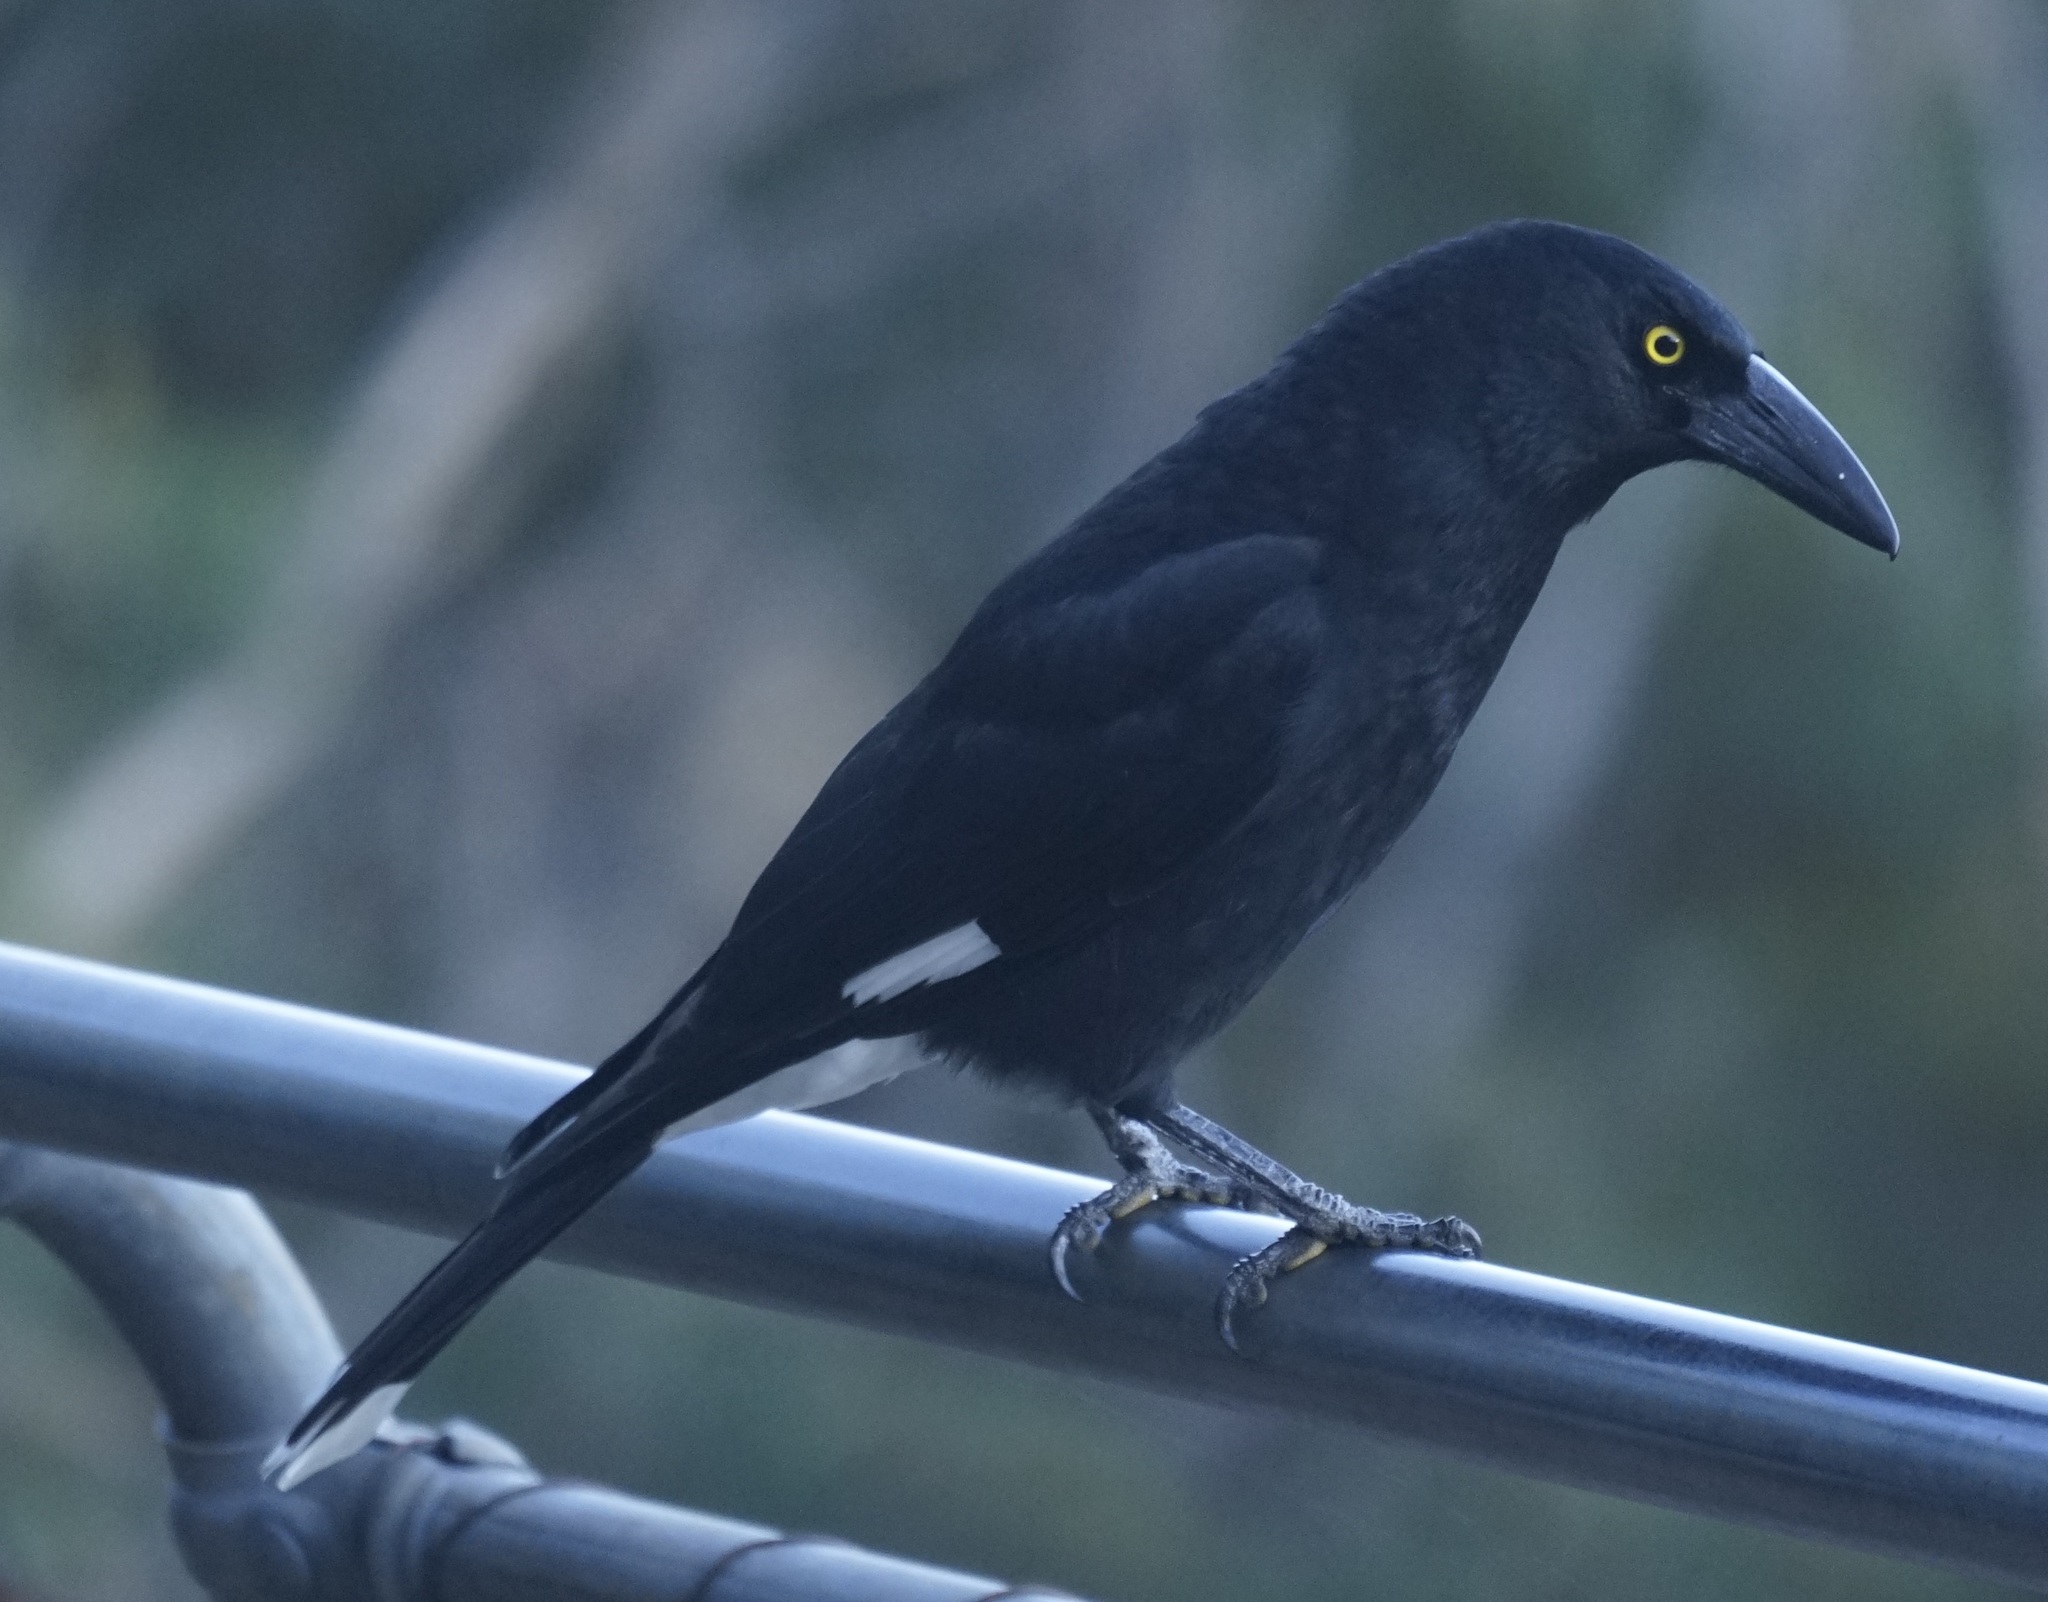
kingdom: Animalia
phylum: Chordata
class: Aves
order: Passeriformes
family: Cracticidae
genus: Strepera
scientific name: Strepera graculina
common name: Pied currawong
